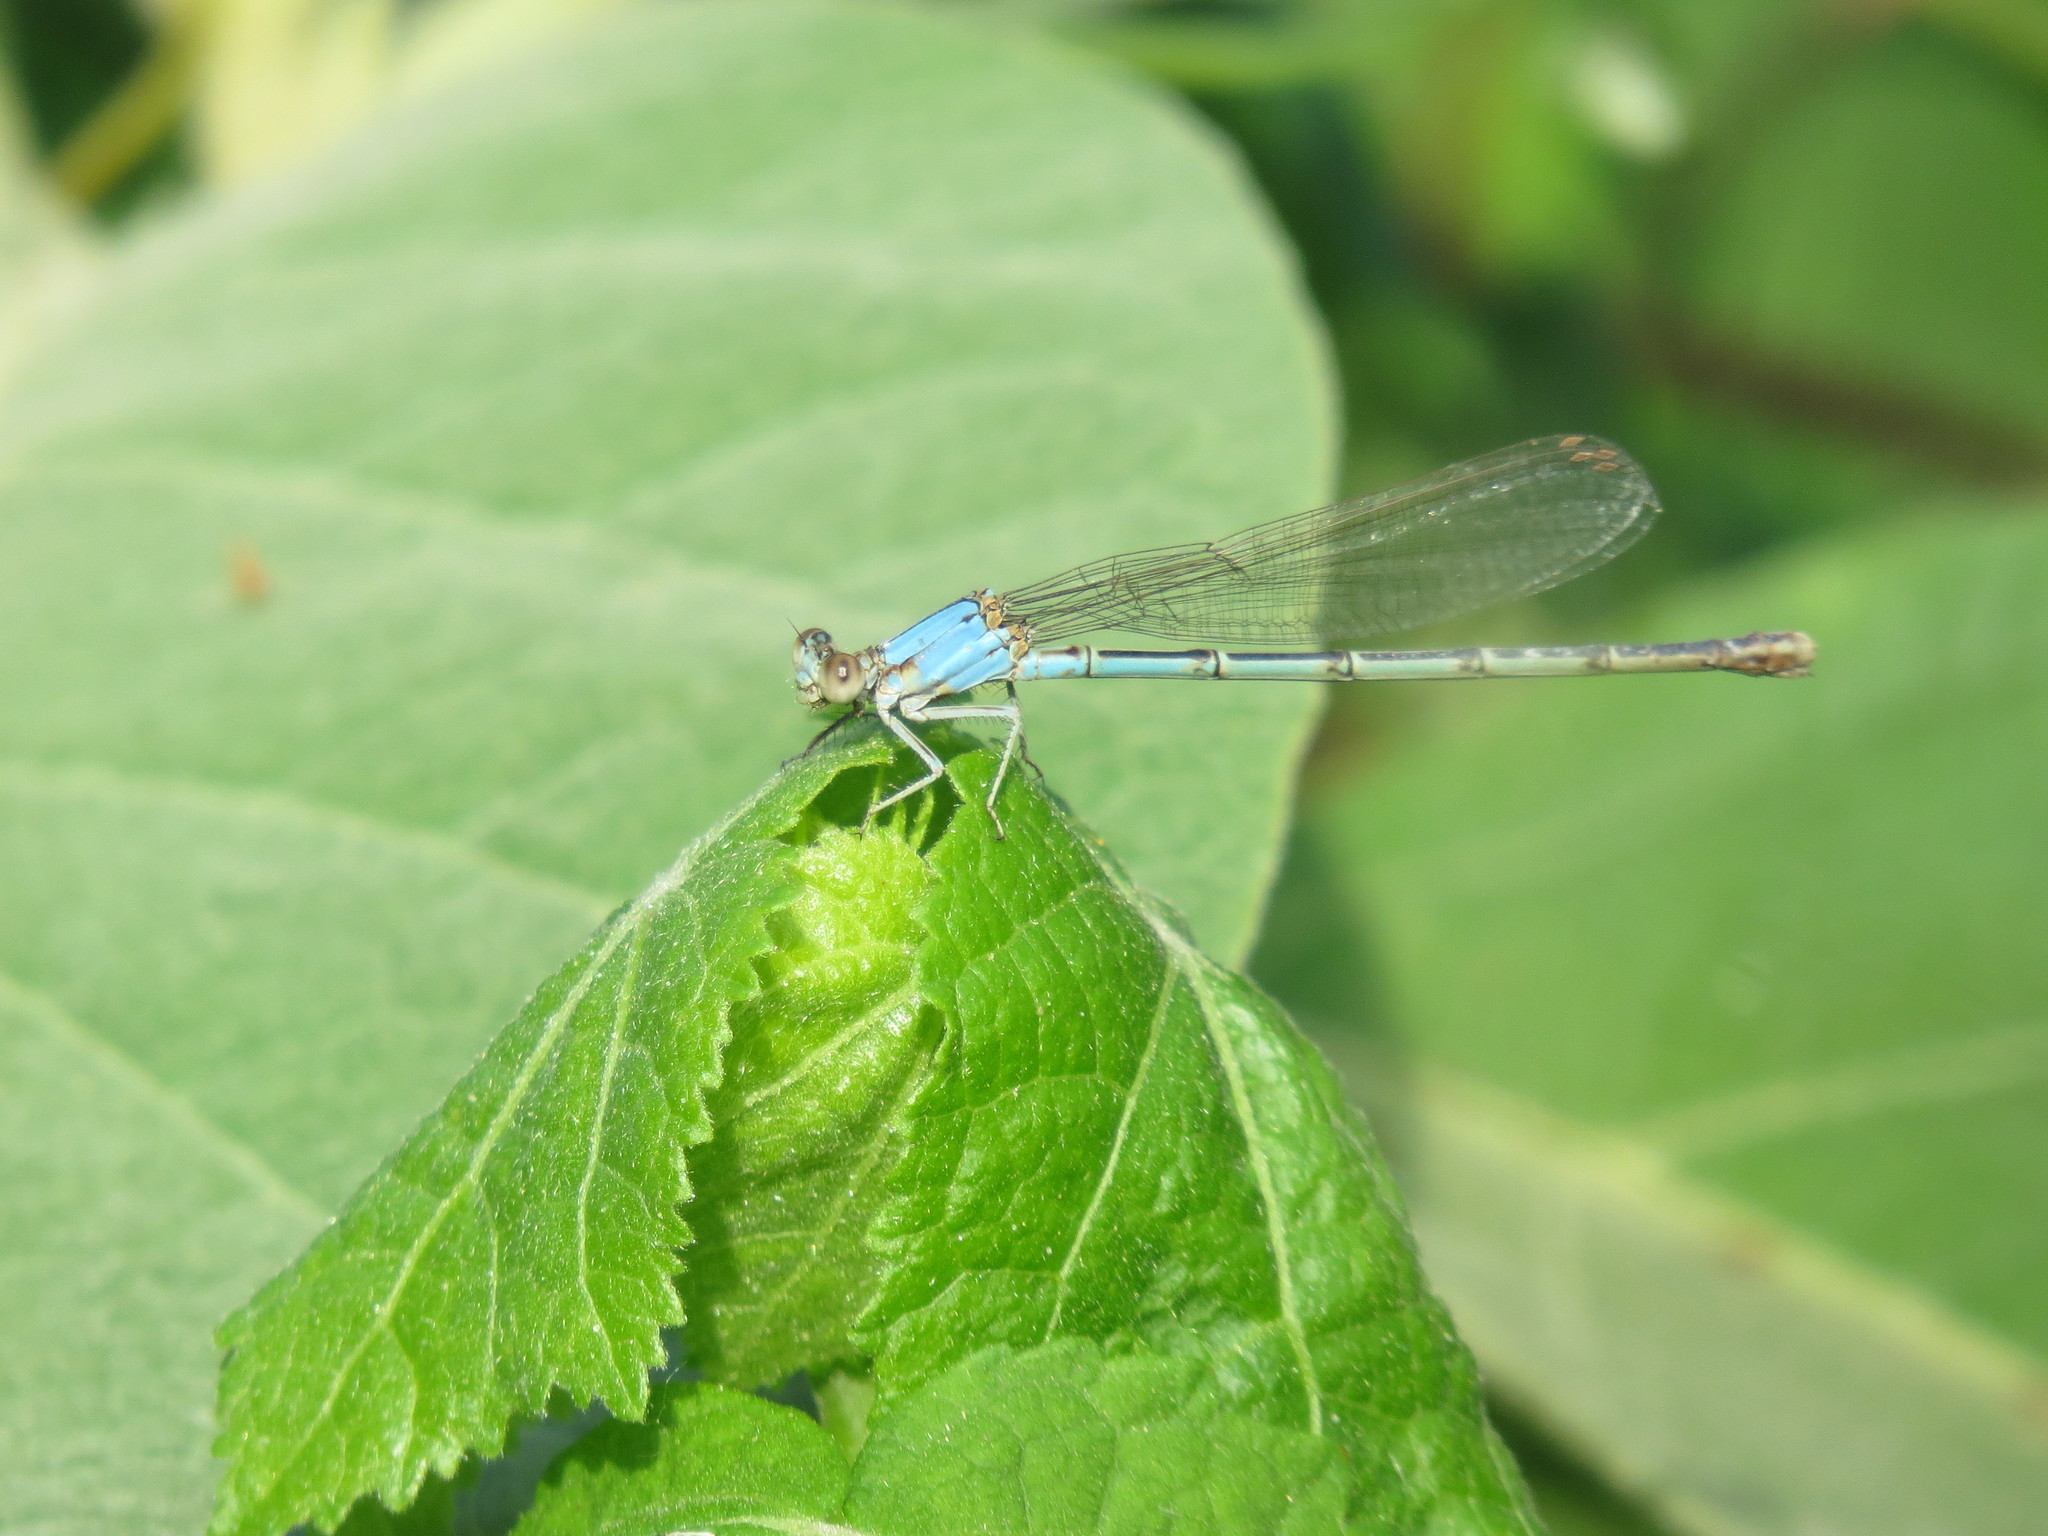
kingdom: Animalia
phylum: Arthropoda
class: Insecta
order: Odonata
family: Coenagrionidae
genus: Argia
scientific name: Argia moesta
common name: Powdered dancer
